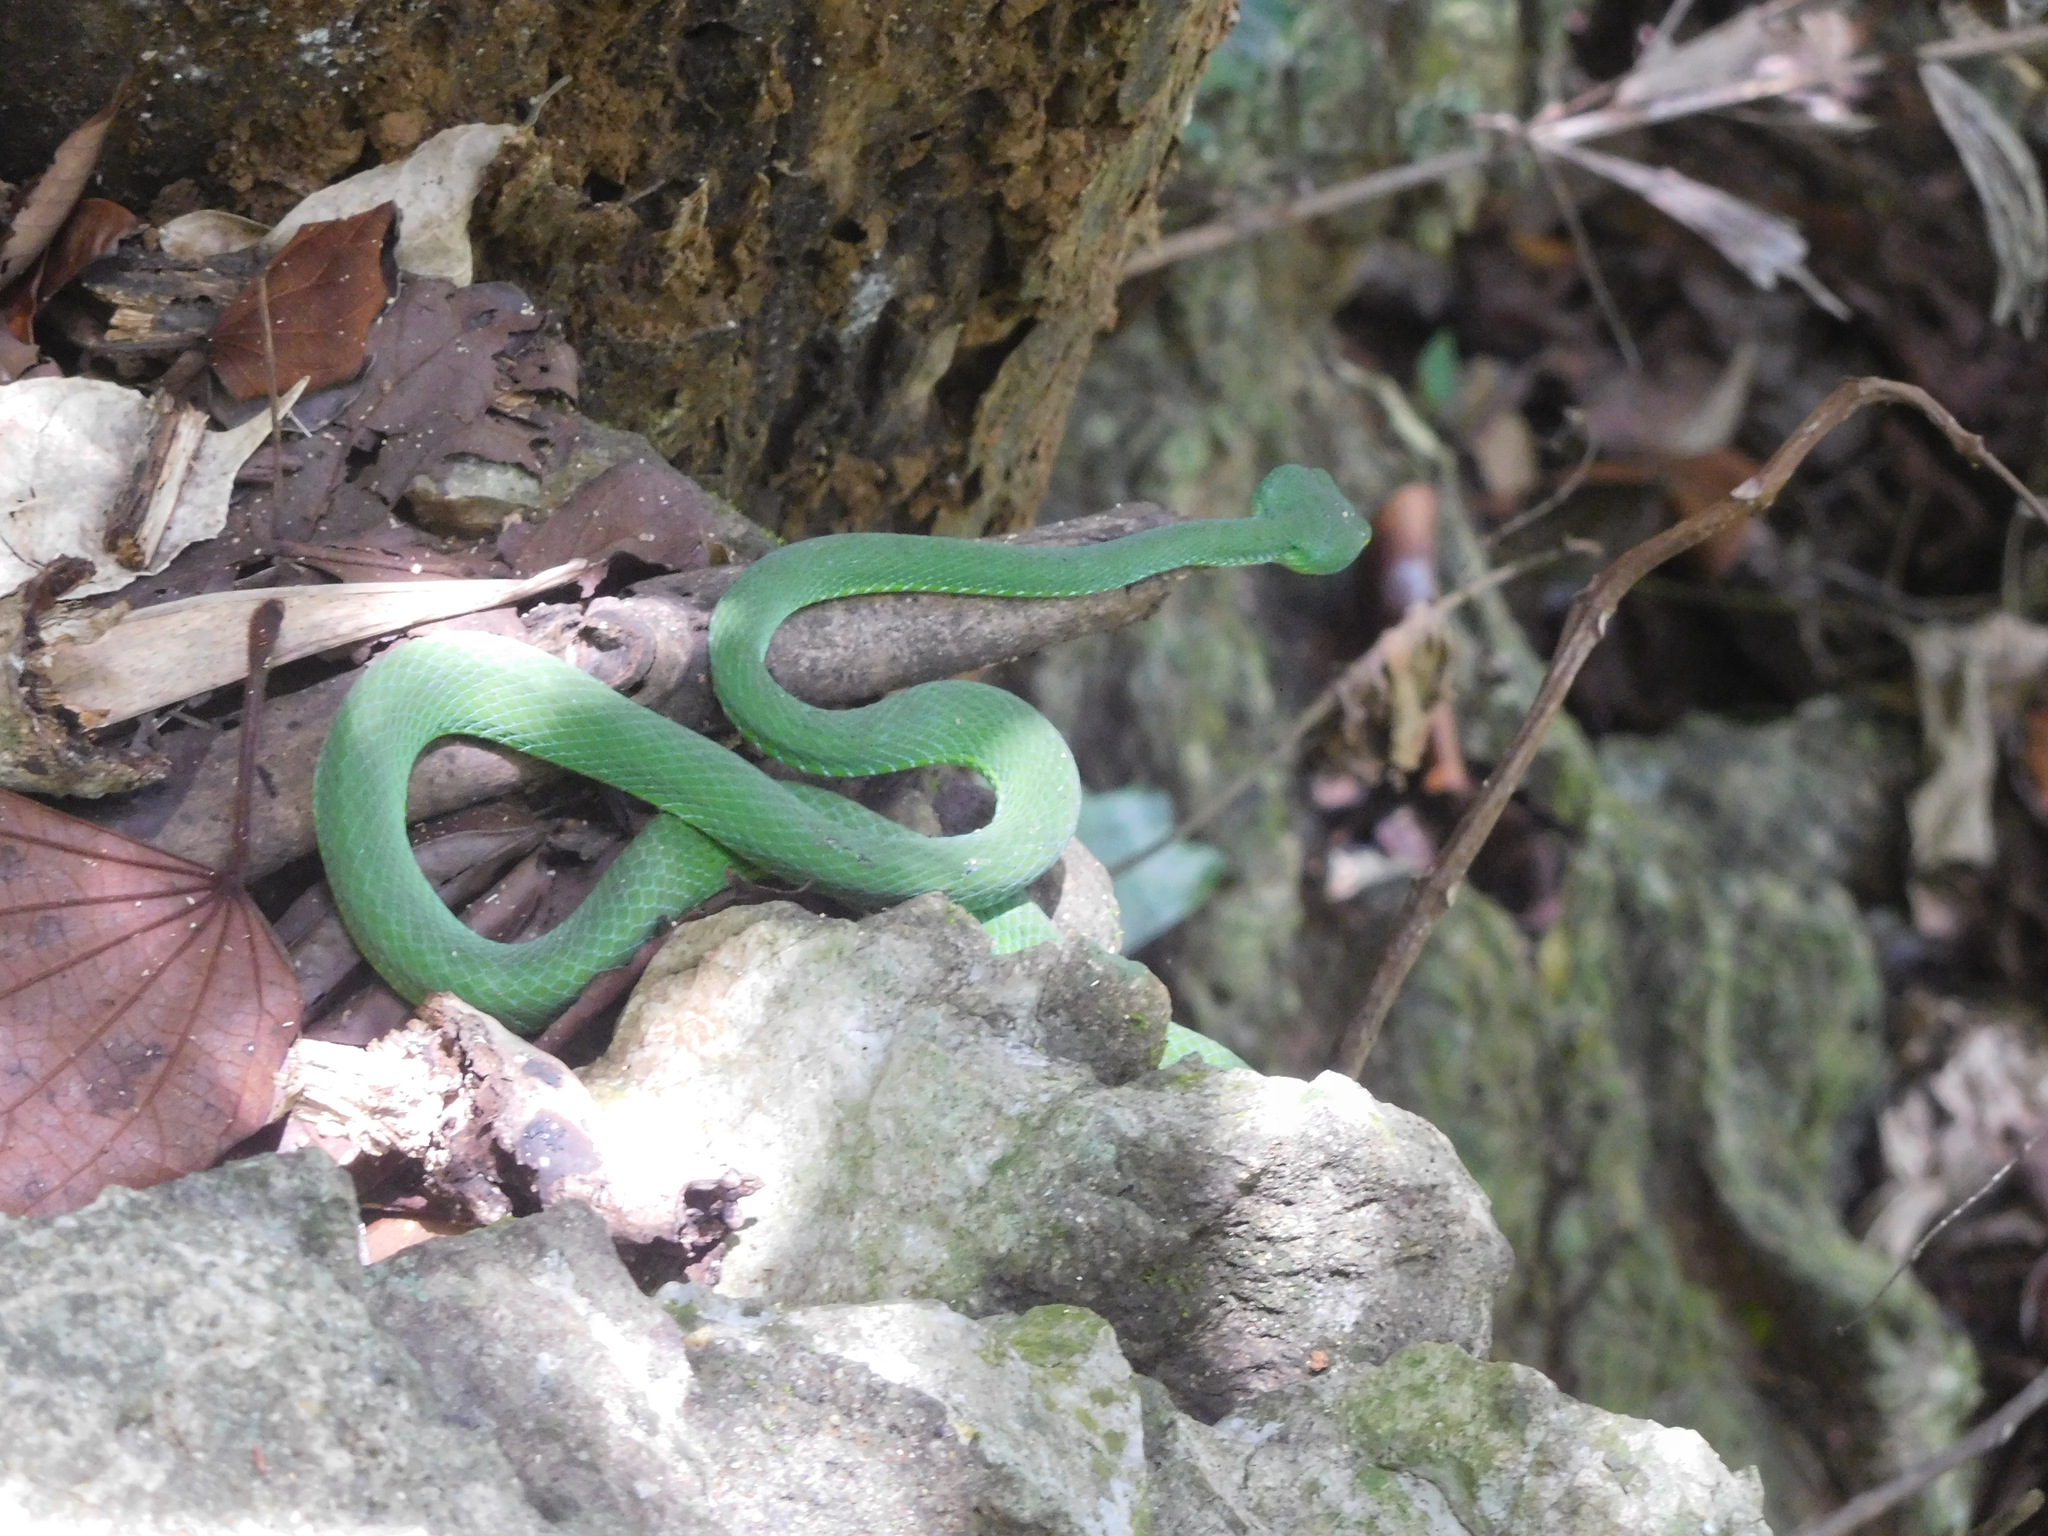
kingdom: Animalia
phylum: Chordata
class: Squamata
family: Viperidae
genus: Trimeresurus
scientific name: Trimeresurus stejnegeri
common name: Chen’s bamboo pit viper
